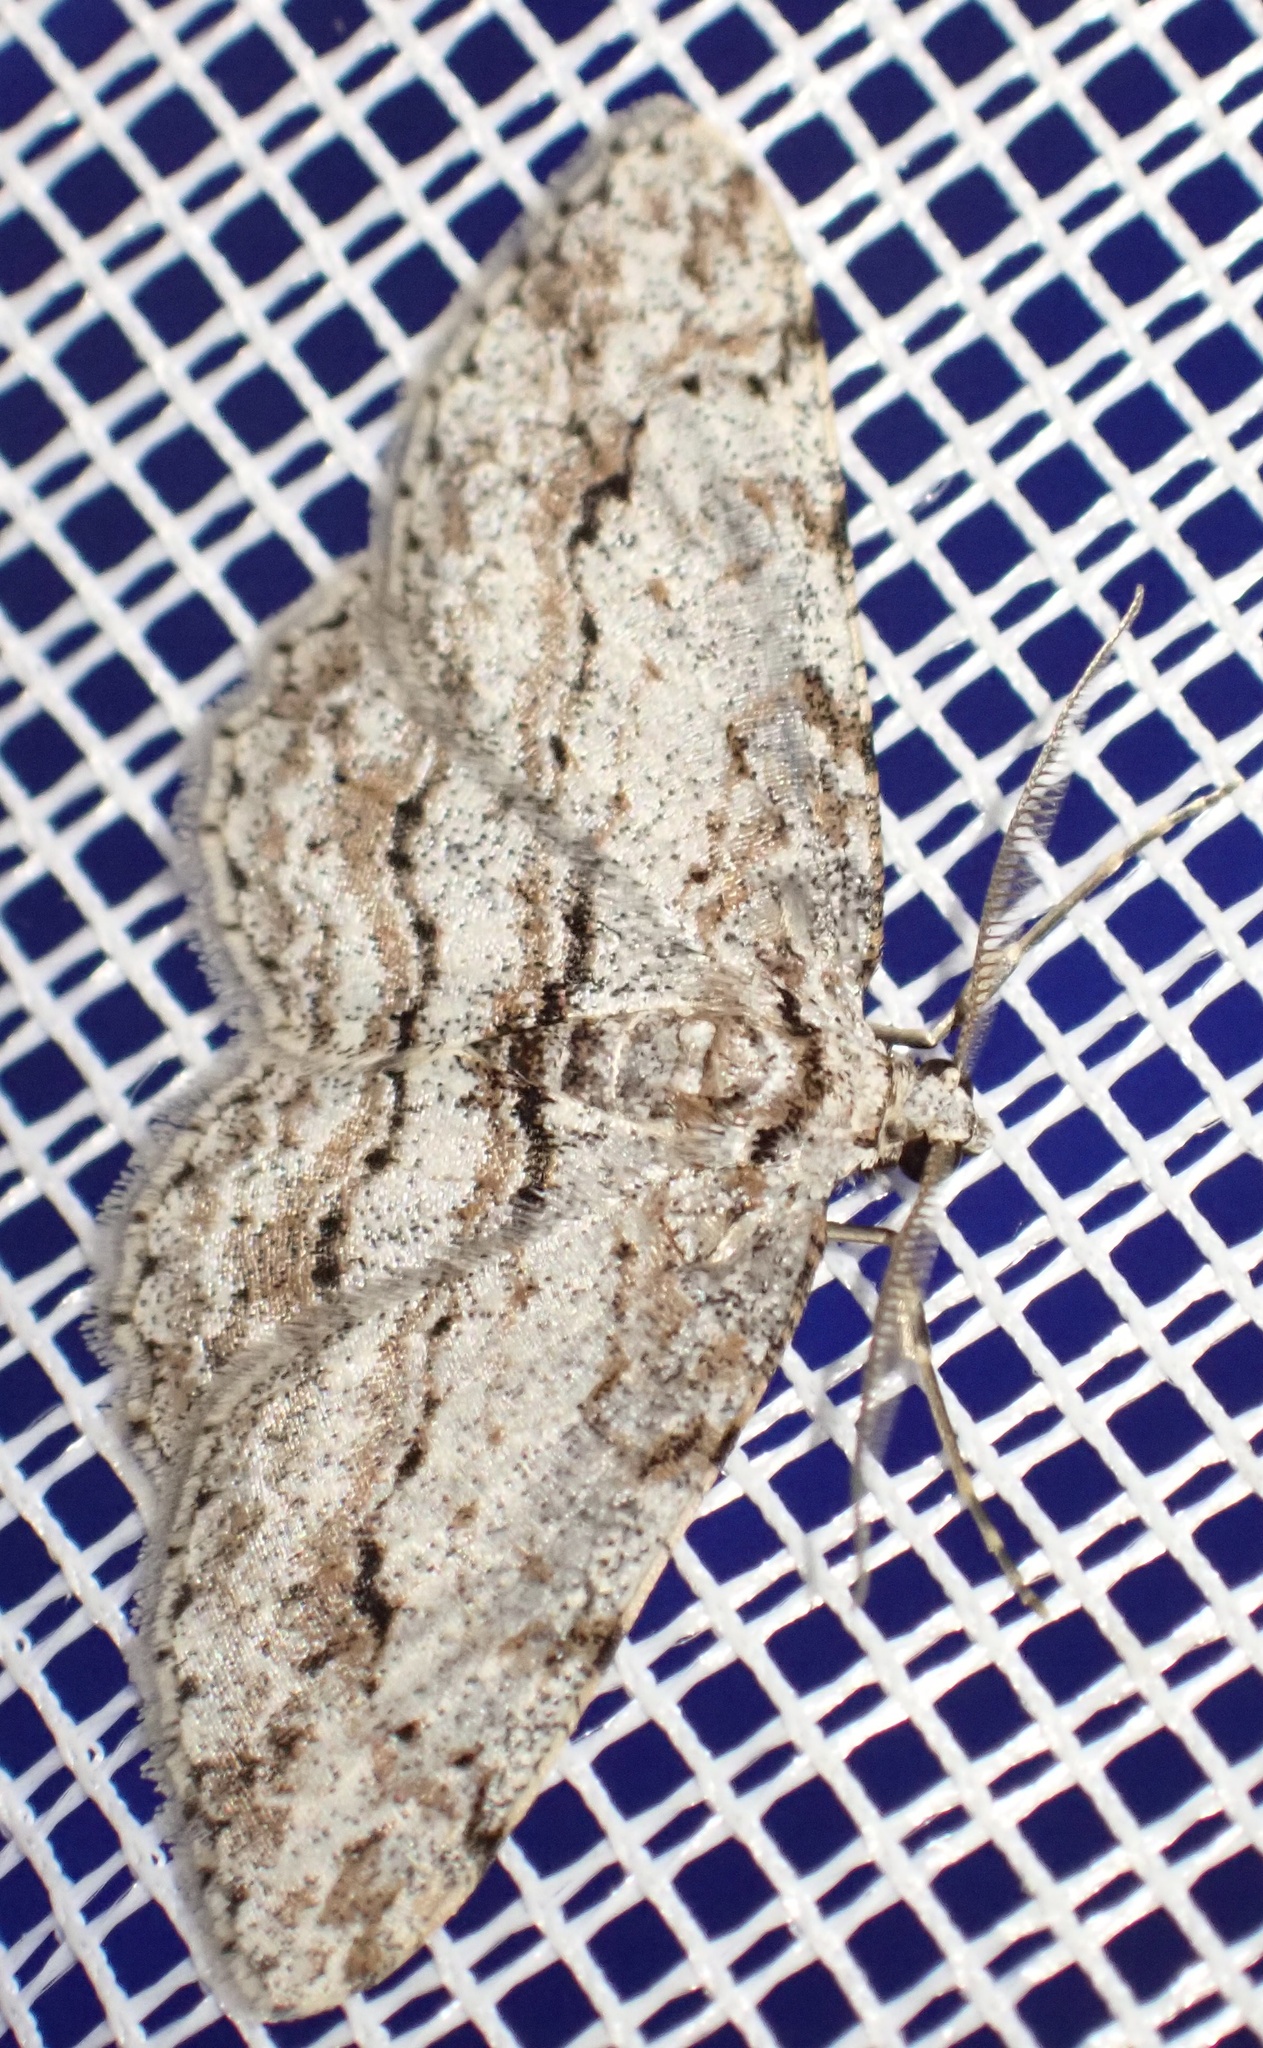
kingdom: Animalia
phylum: Arthropoda
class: Insecta
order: Lepidoptera
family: Geometridae
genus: Didymoctenia
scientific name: Didymoctenia exsuperata
